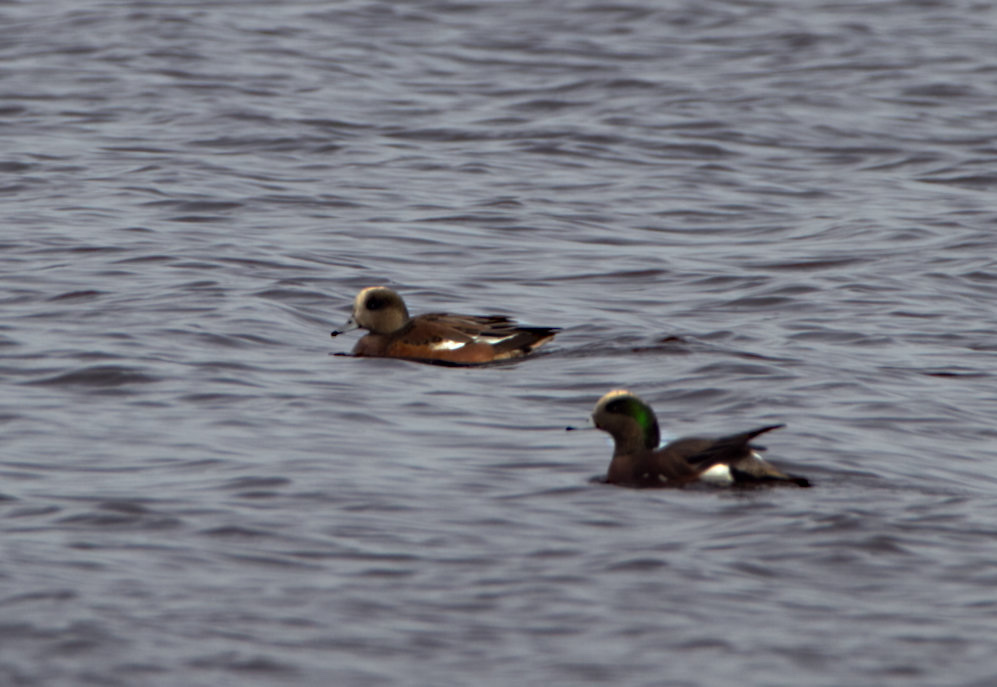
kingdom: Animalia
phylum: Chordata
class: Aves
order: Anseriformes
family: Anatidae
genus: Mareca
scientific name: Mareca americana
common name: American wigeon
